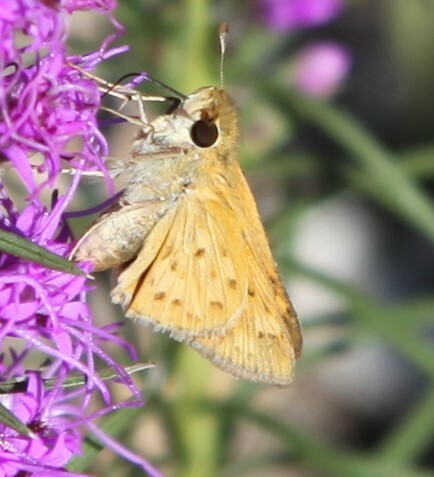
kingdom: Animalia
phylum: Arthropoda
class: Insecta
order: Lepidoptera
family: Hesperiidae
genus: Hylephila
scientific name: Hylephila phyleus
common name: Fiery skipper
